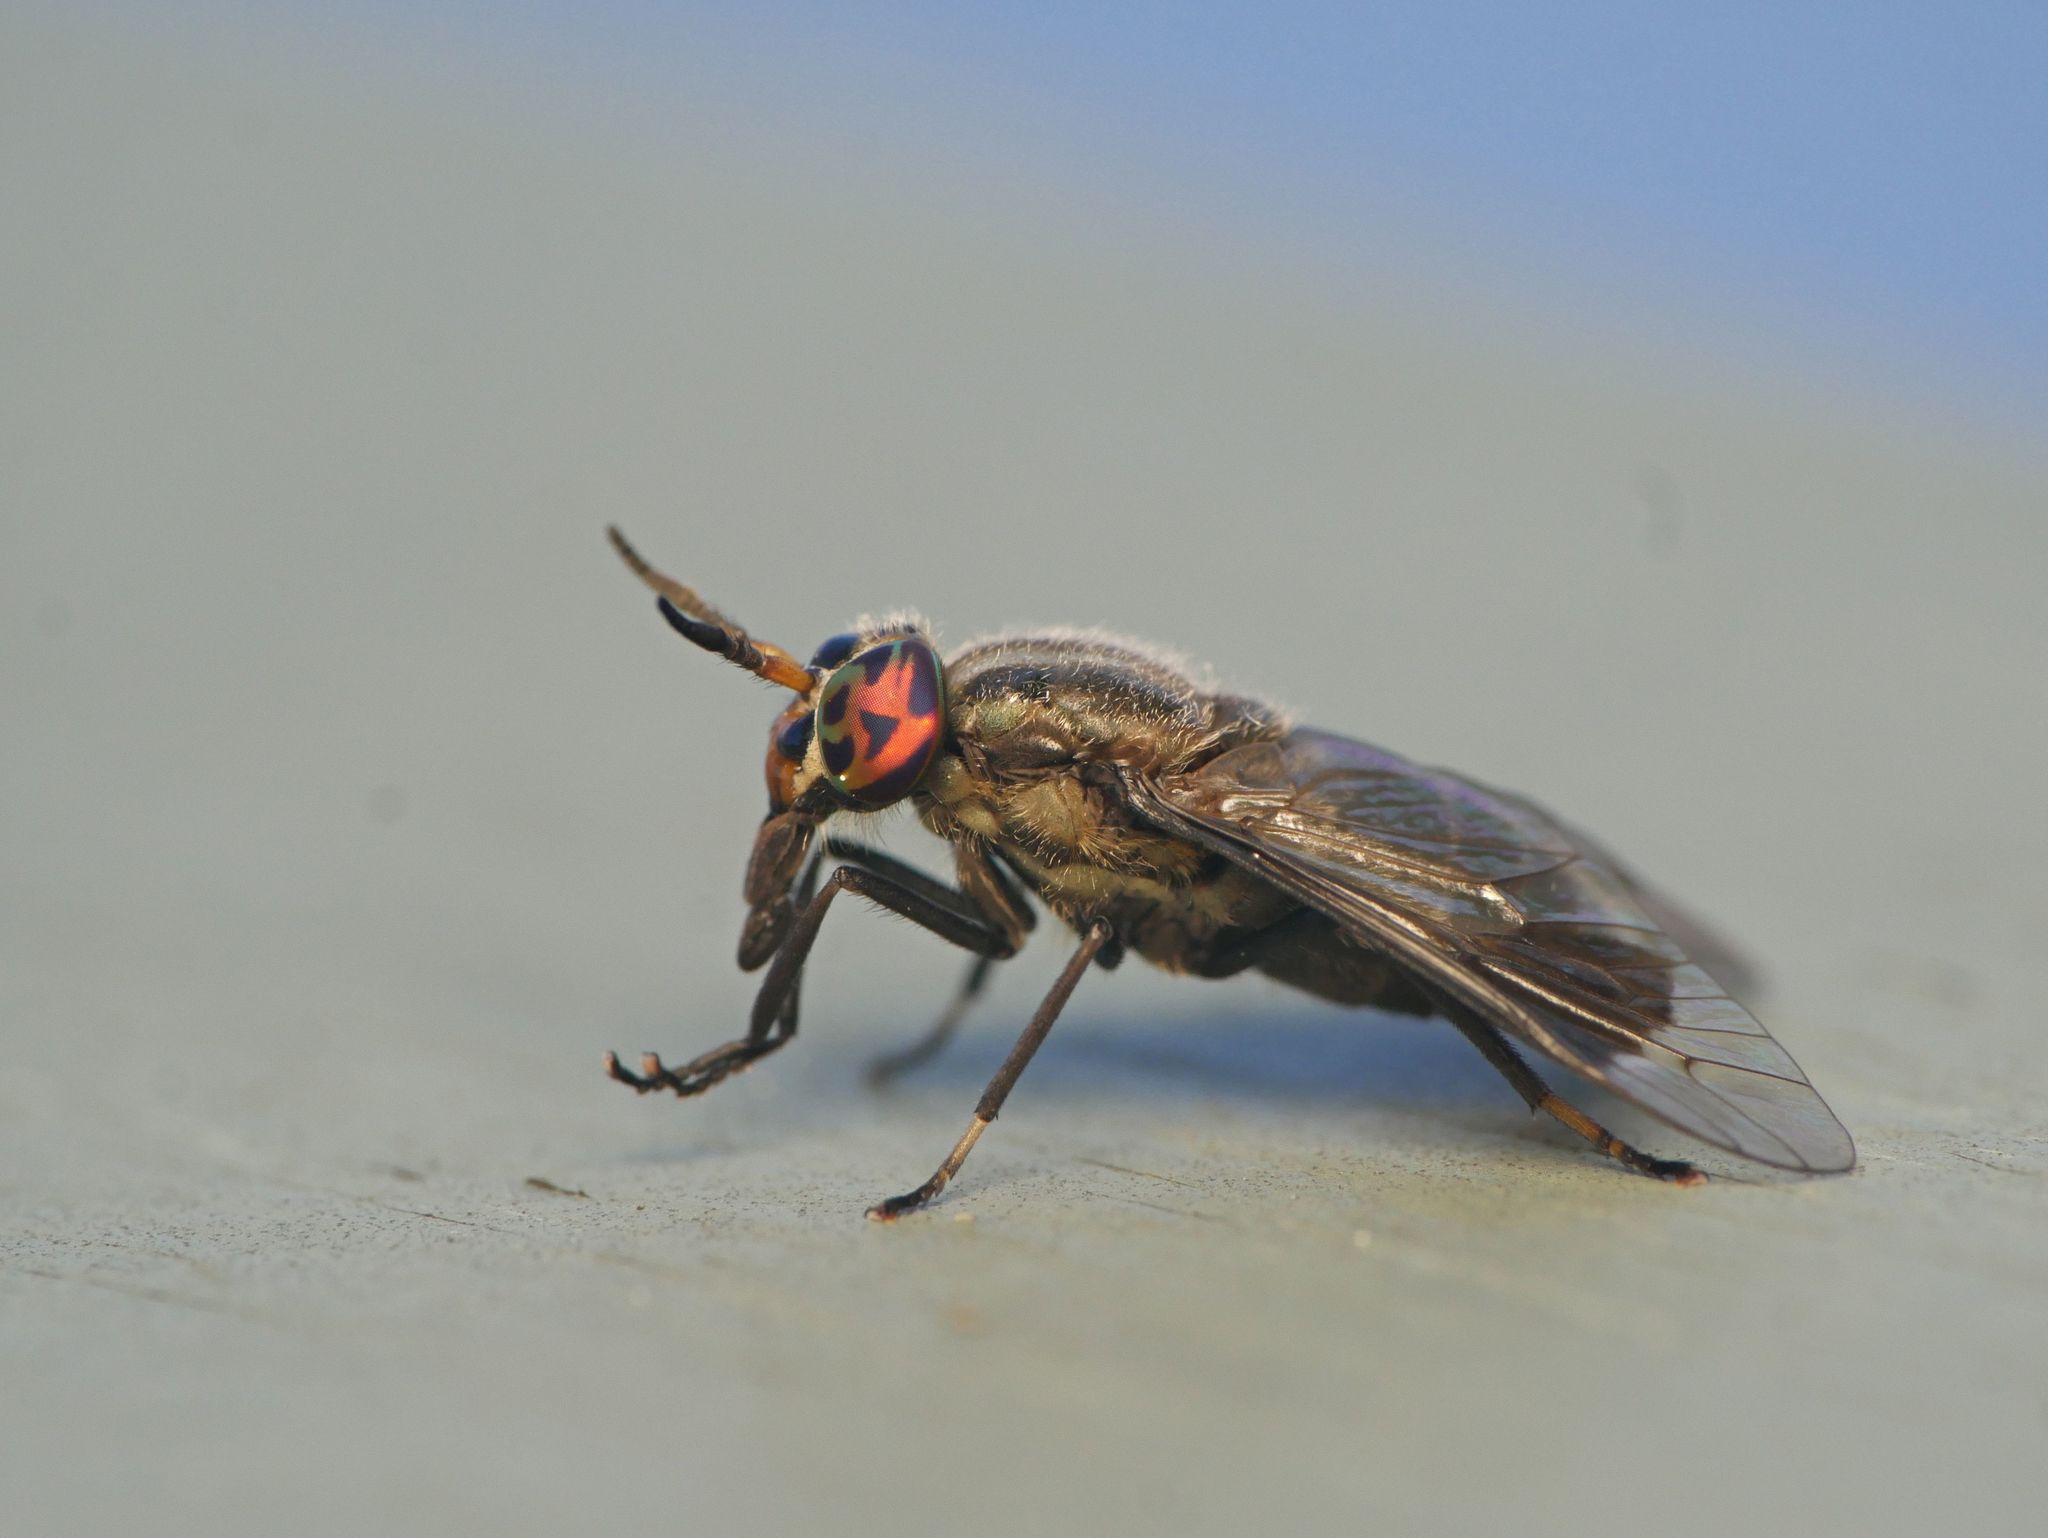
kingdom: Animalia
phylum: Arthropoda
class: Insecta
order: Diptera
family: Tabanidae
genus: Chrysops
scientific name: Chrysops niger
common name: Black deer fly
